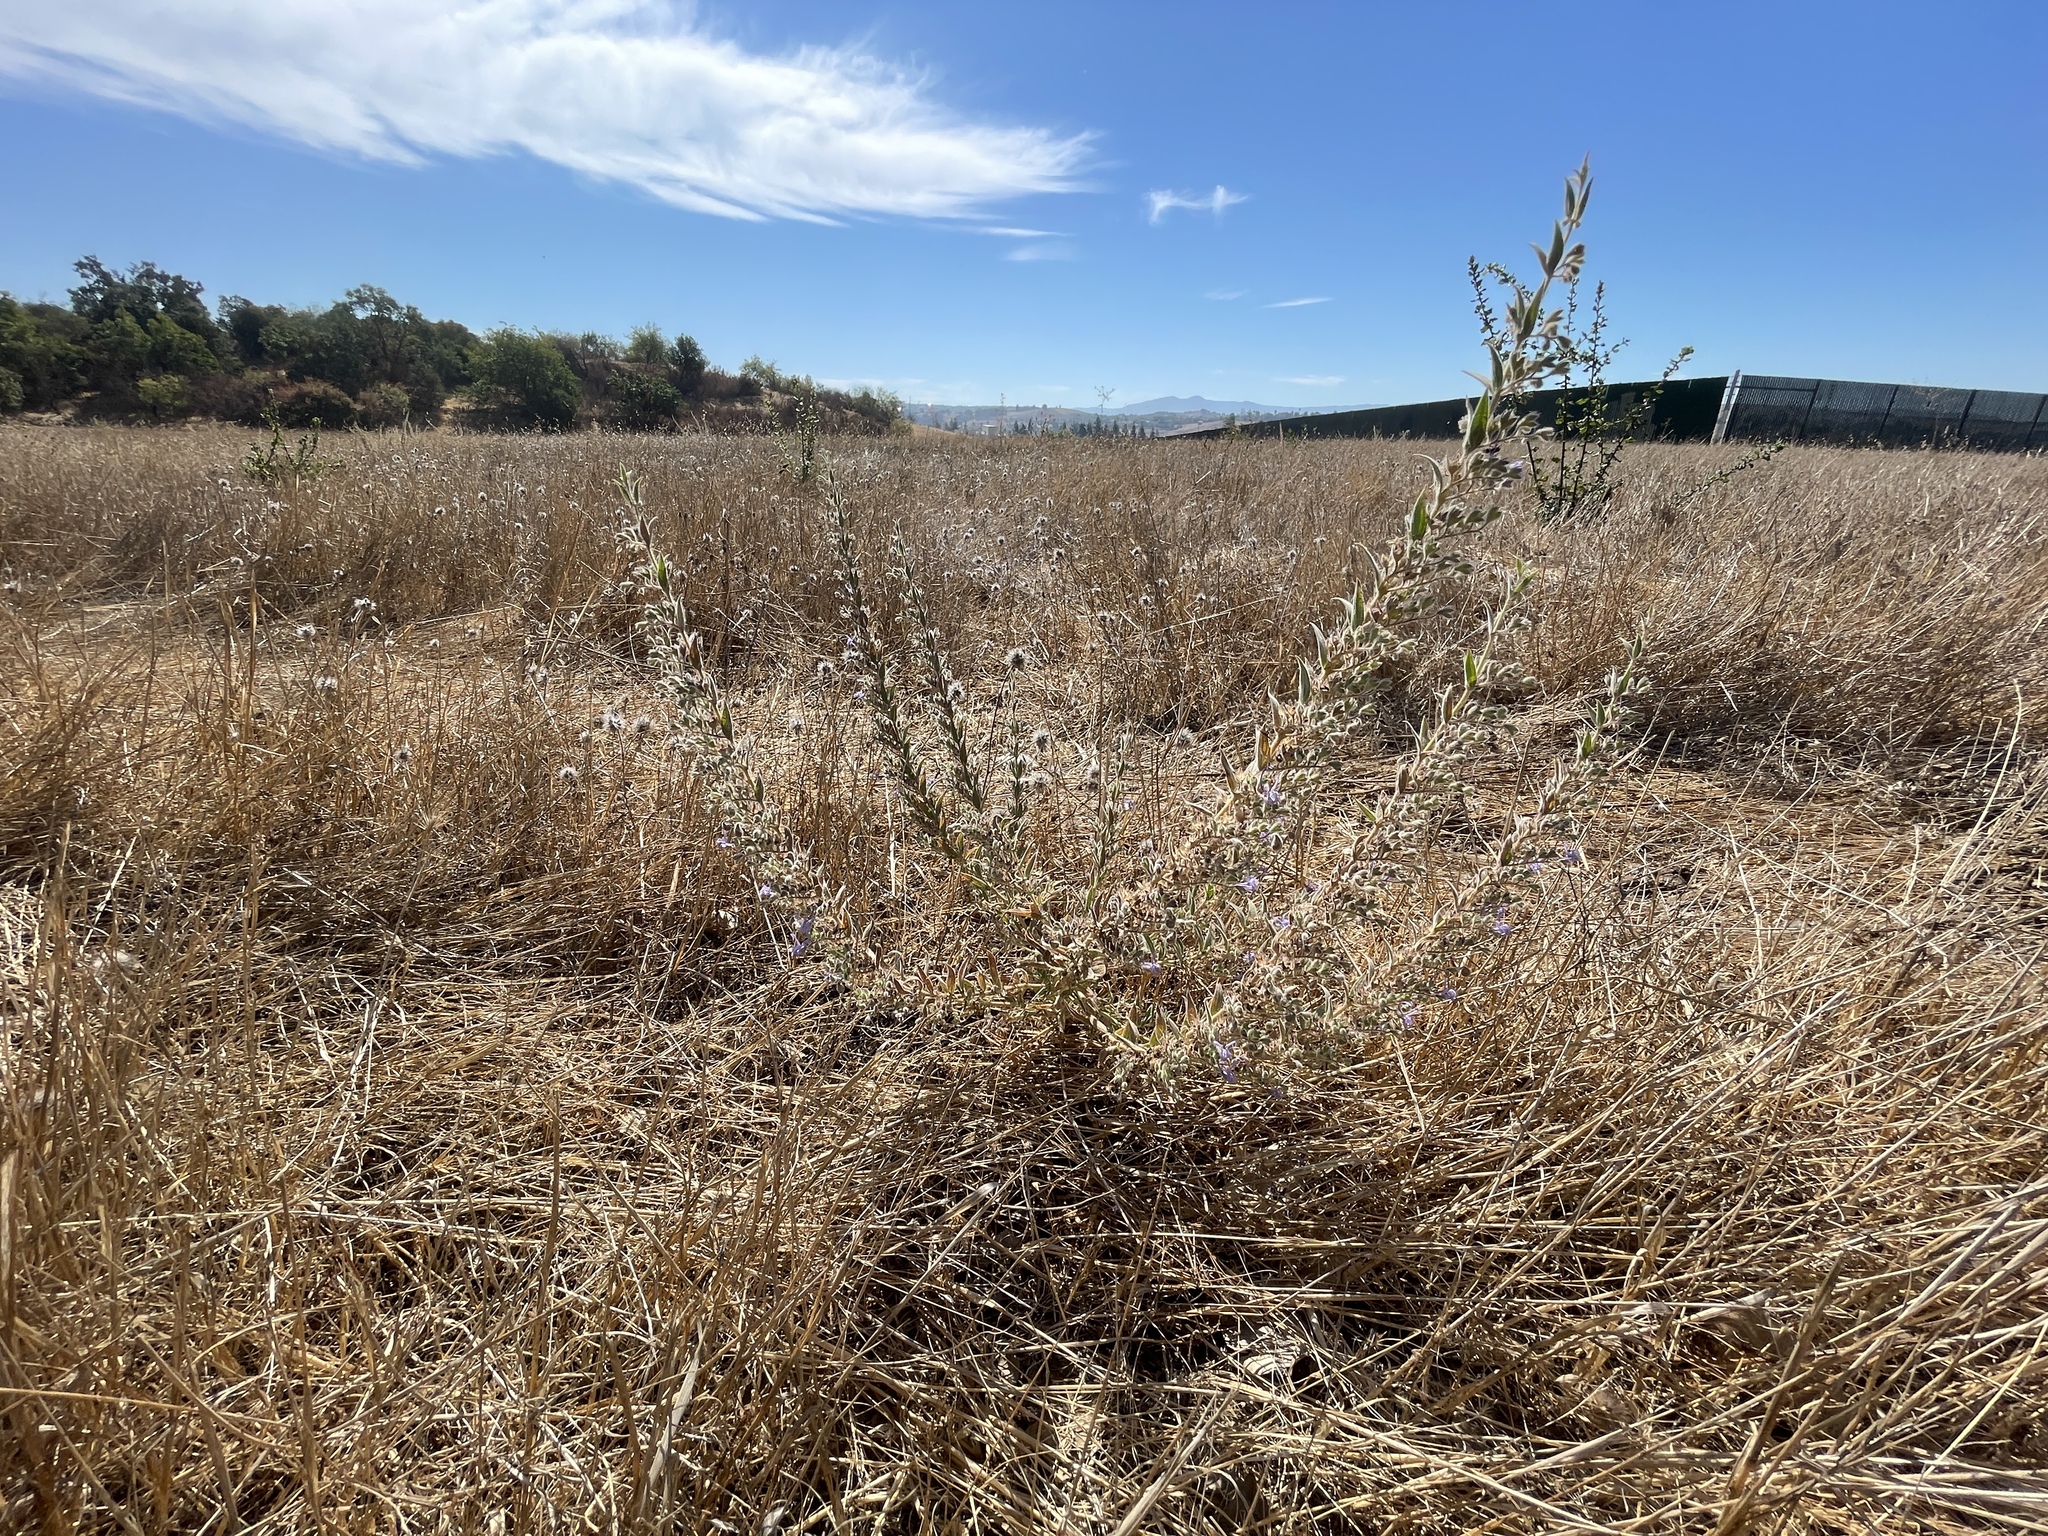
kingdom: Plantae
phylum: Tracheophyta
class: Magnoliopsida
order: Lamiales
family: Lamiaceae
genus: Trichostema
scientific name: Trichostema lanceolatum
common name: Vinegar-weed
